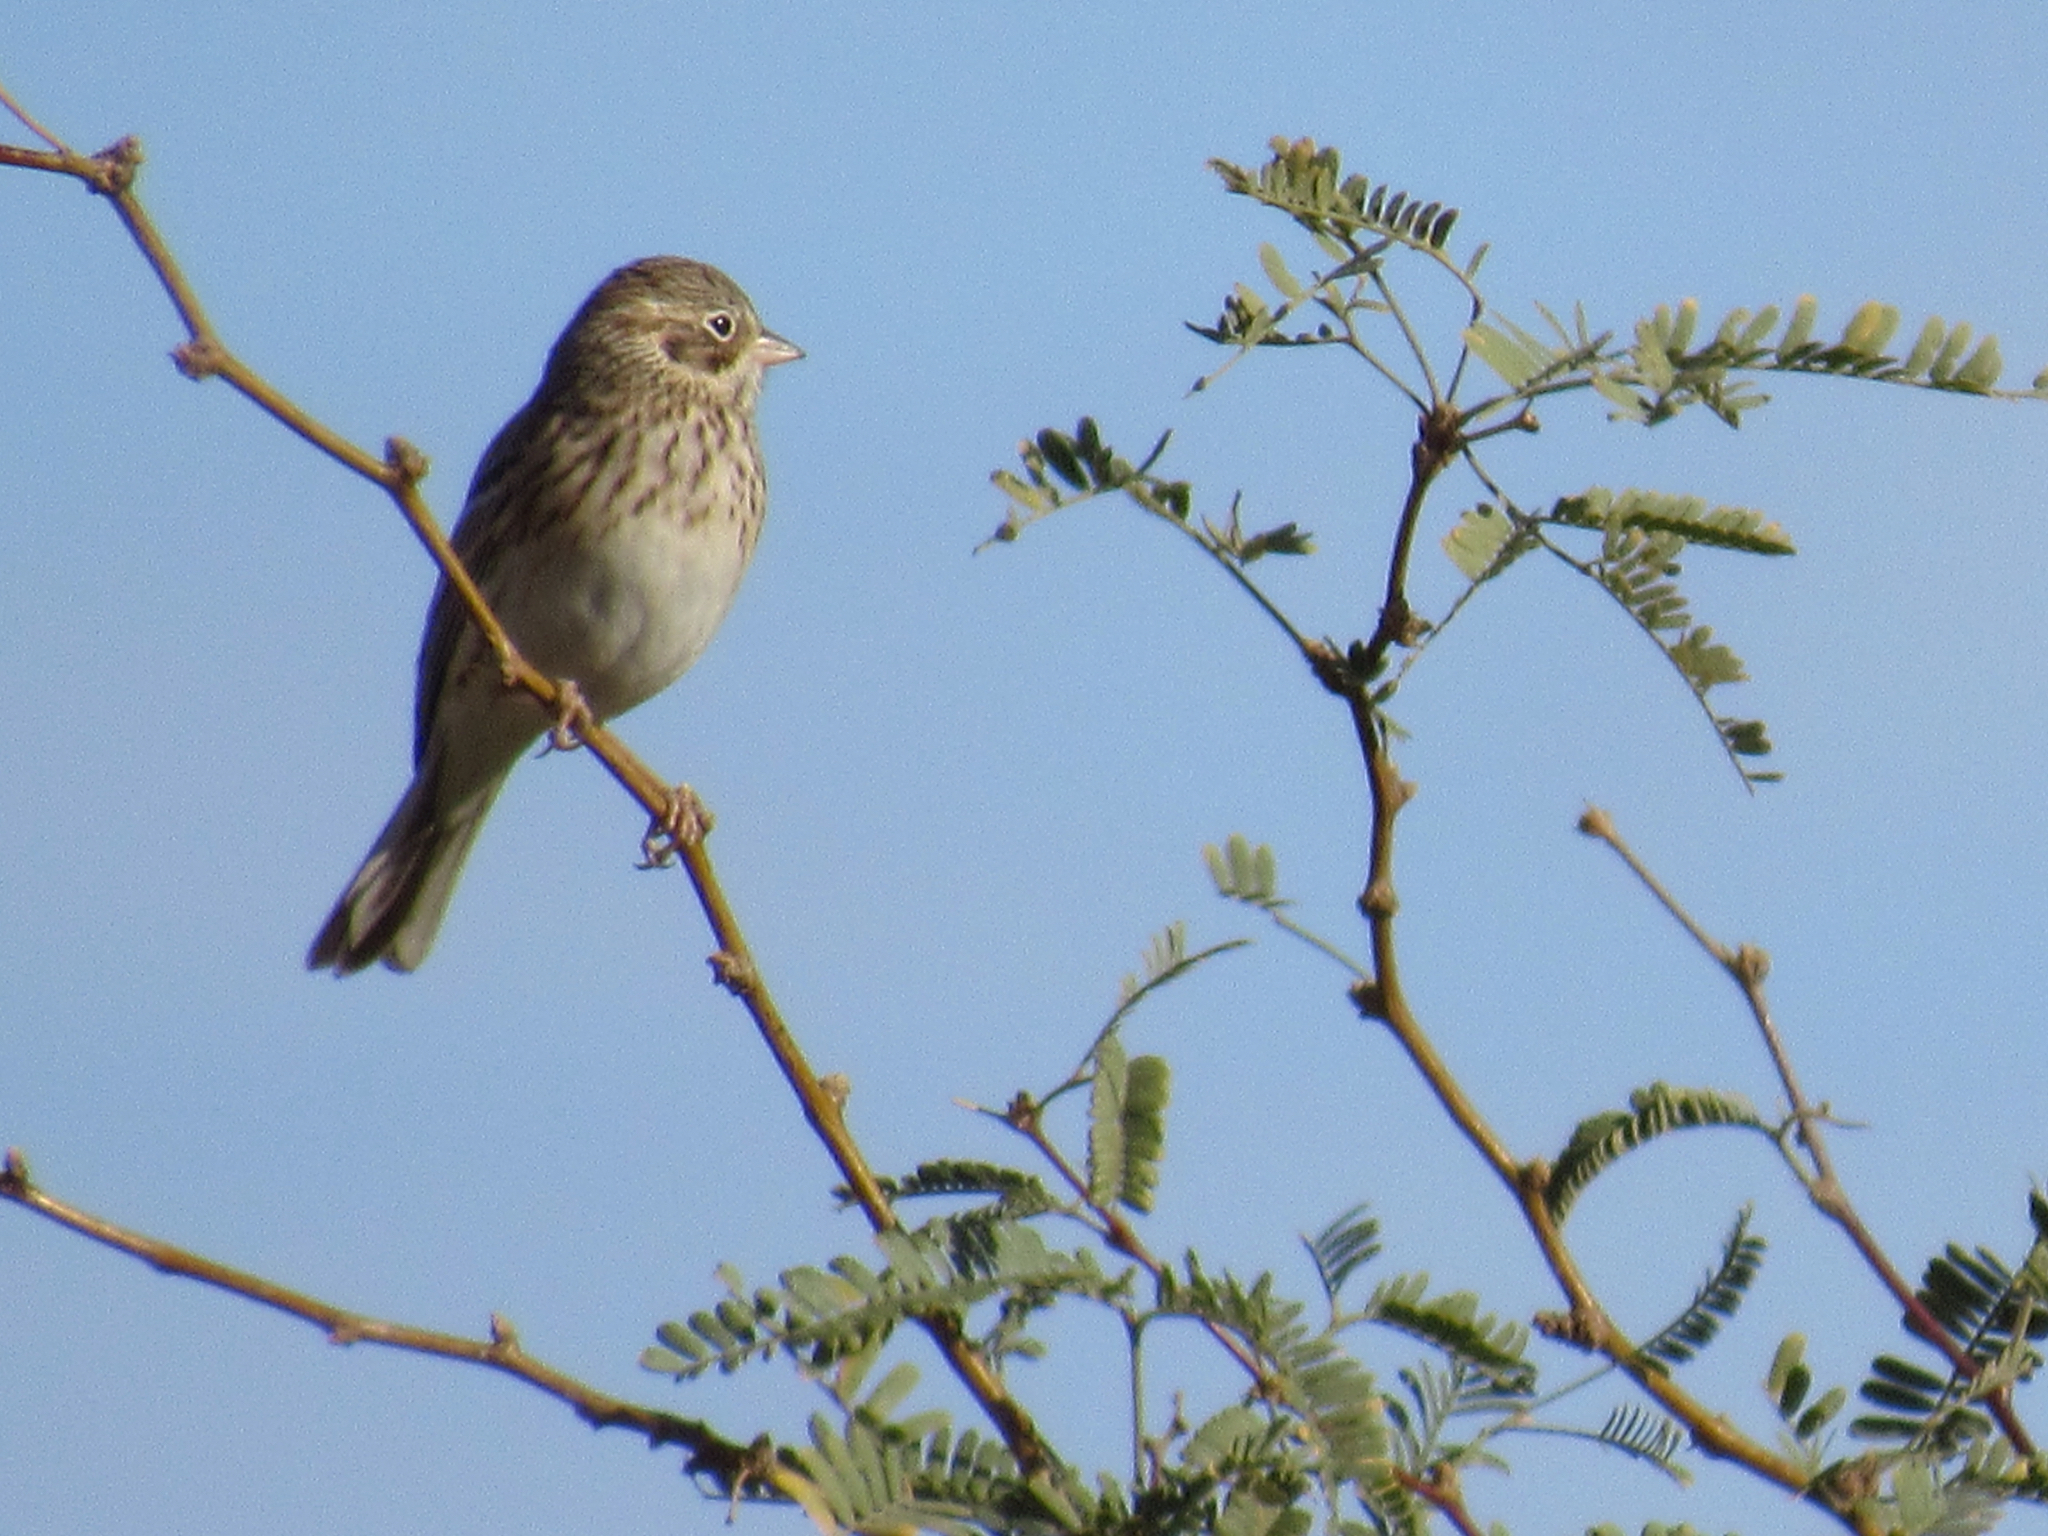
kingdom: Animalia
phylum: Chordata
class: Aves
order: Passeriformes
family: Passerellidae
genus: Pooecetes
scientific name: Pooecetes gramineus
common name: Vesper sparrow
